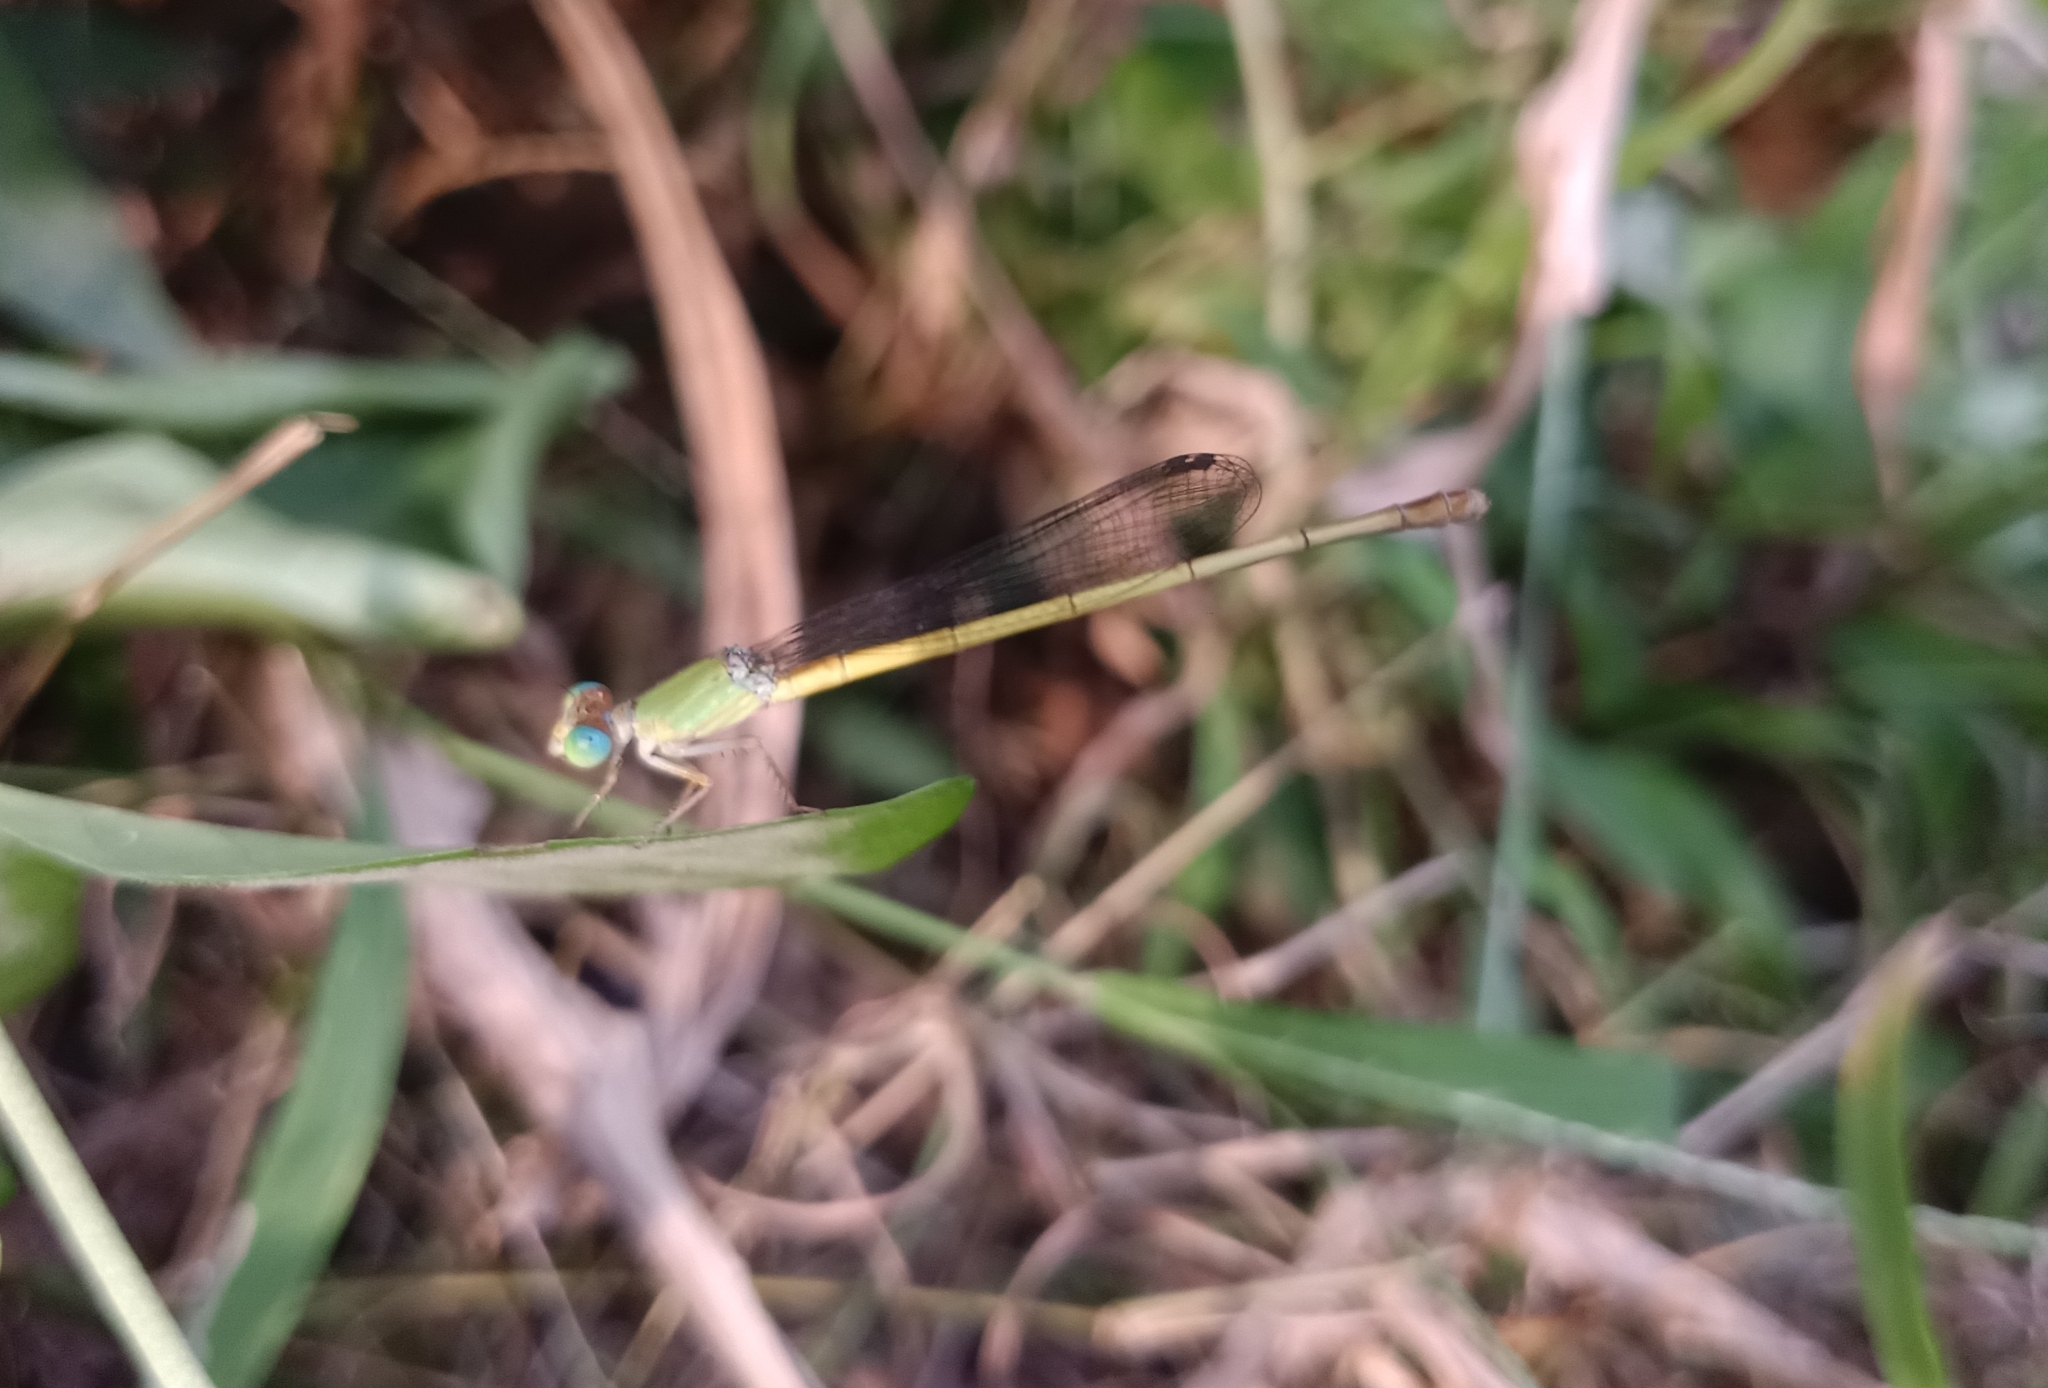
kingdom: Animalia
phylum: Arthropoda
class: Insecta
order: Odonata
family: Coenagrionidae
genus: Ceriagrion
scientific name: Ceriagrion coromandelianum
